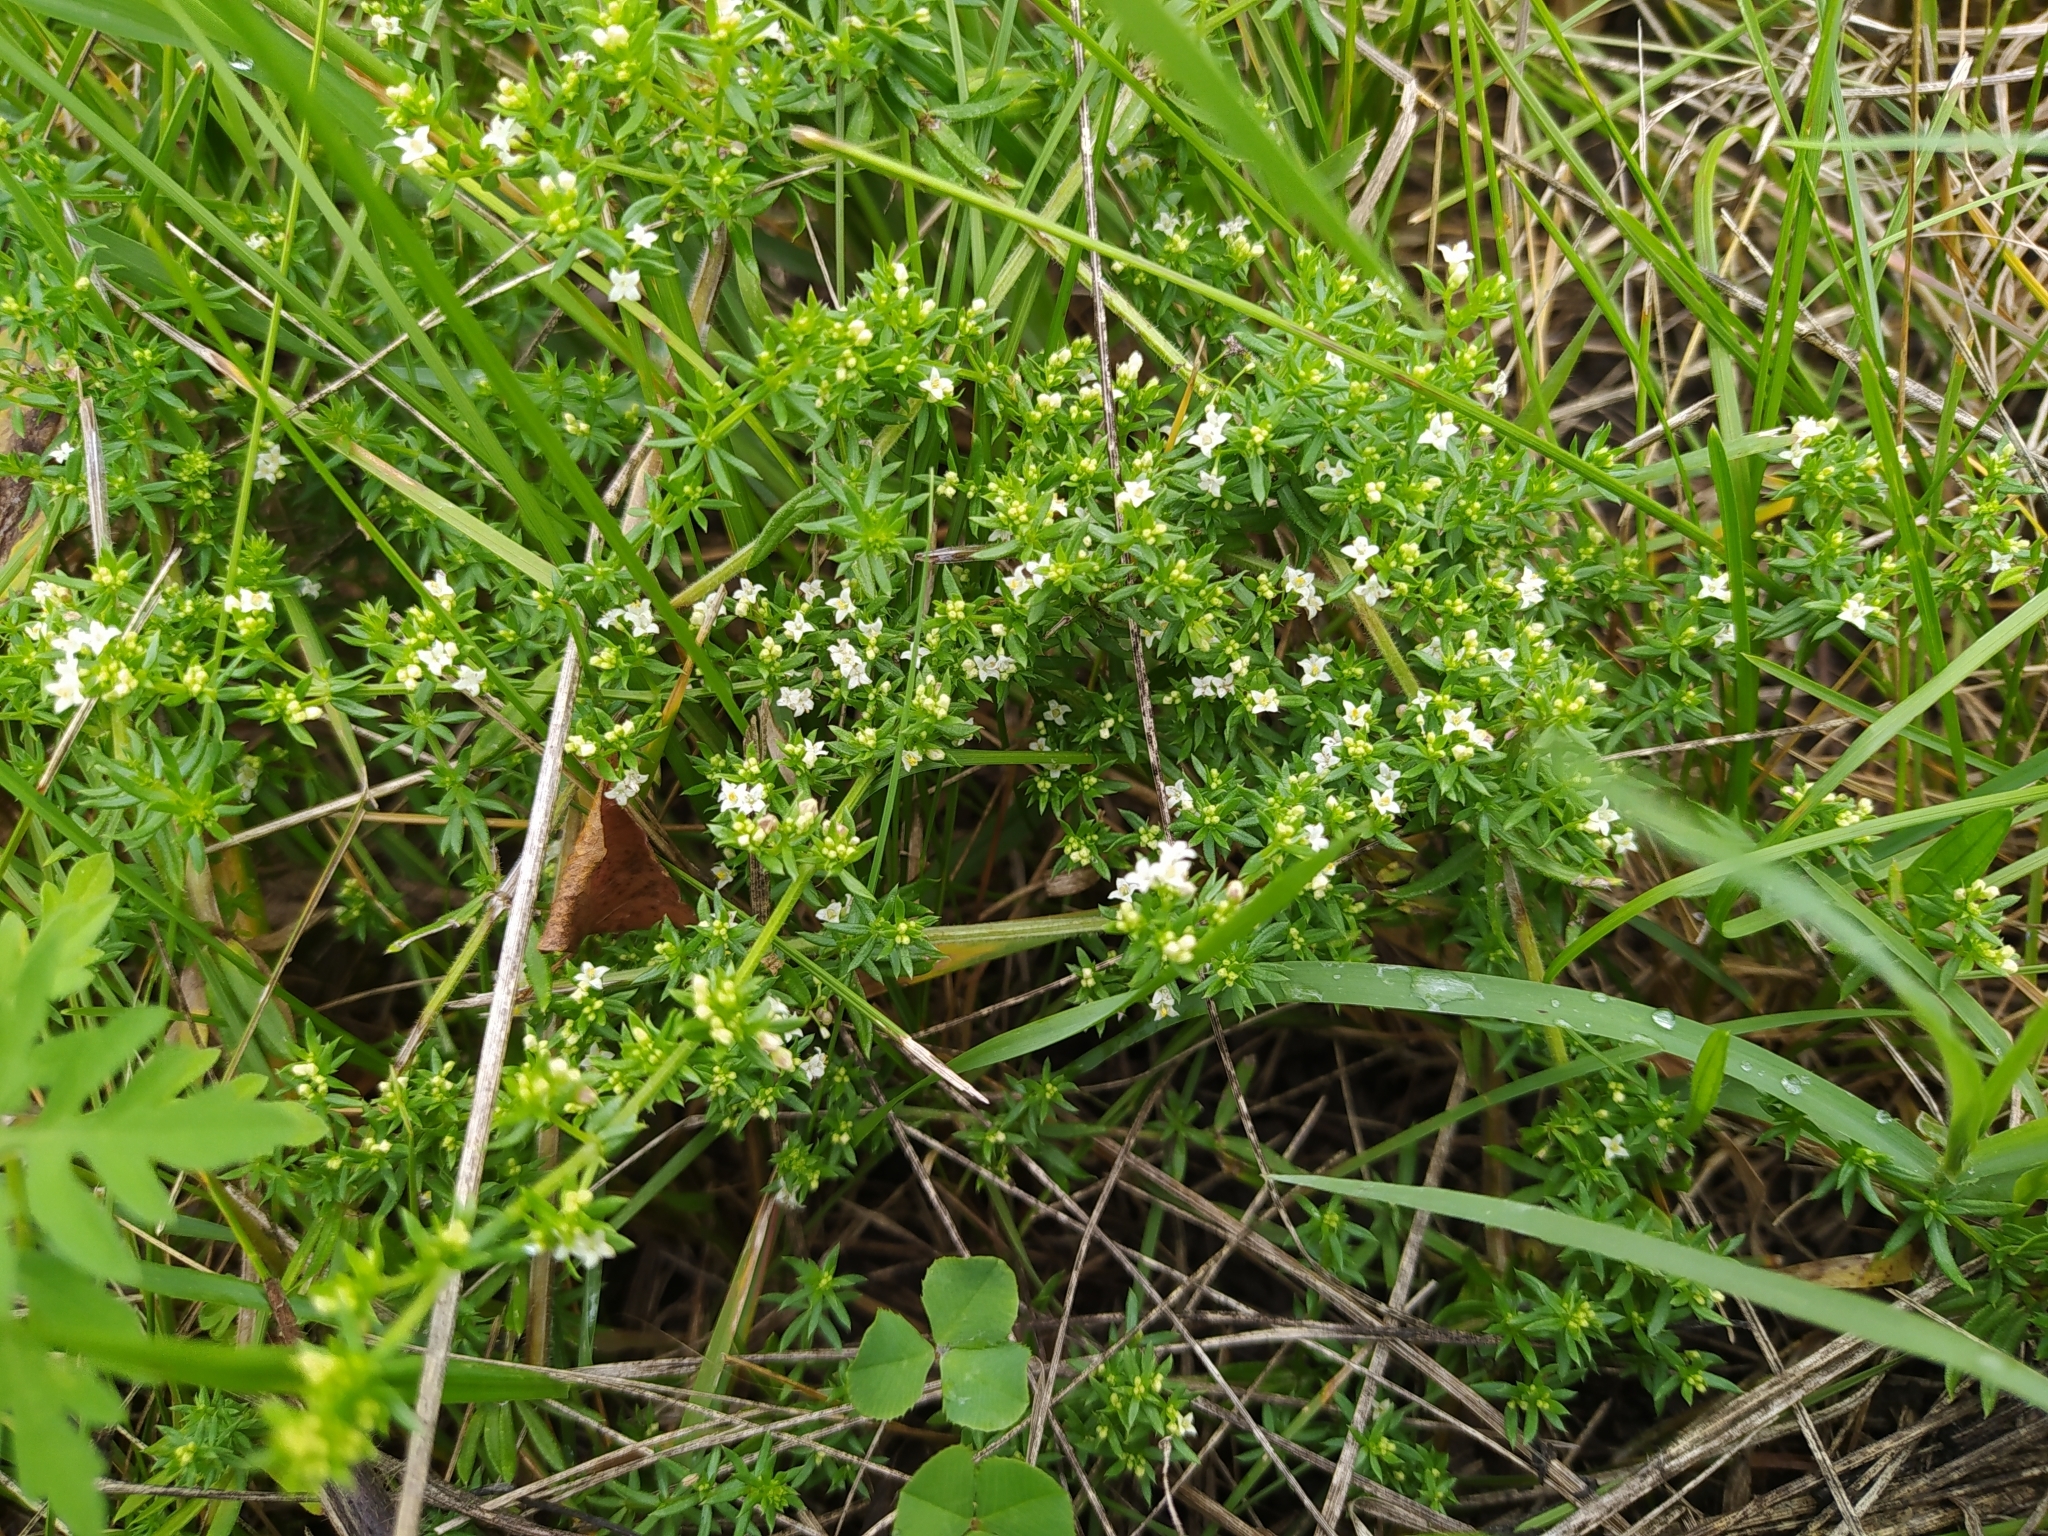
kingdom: Plantae
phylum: Tracheophyta
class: Magnoliopsida
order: Gentianales
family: Rubiaceae
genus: Galium
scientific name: Galium humifusum
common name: Spreading bedstraw
